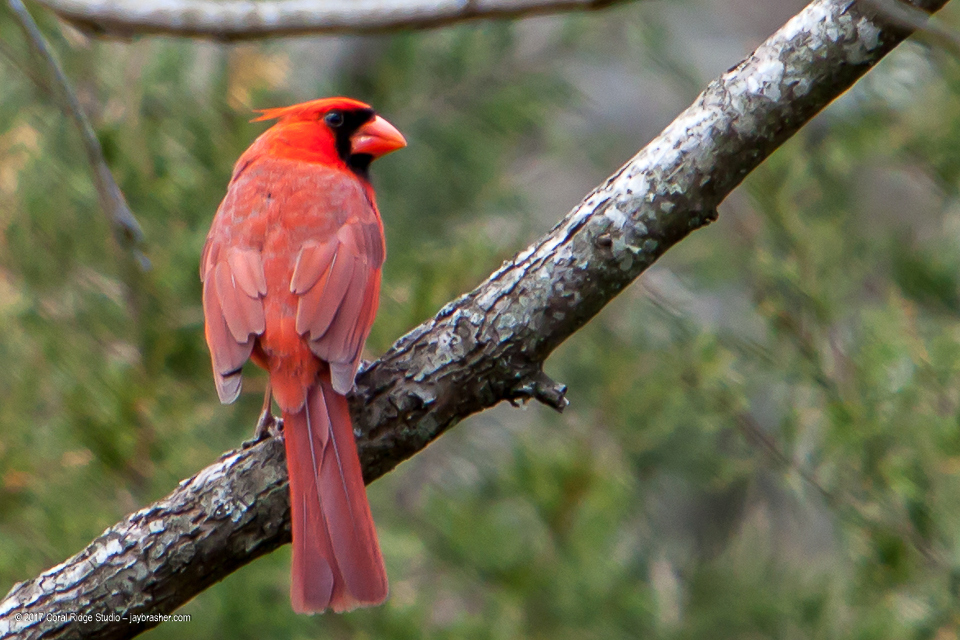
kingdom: Animalia
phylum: Chordata
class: Aves
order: Passeriformes
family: Cardinalidae
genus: Cardinalis
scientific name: Cardinalis cardinalis
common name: Northern cardinal
